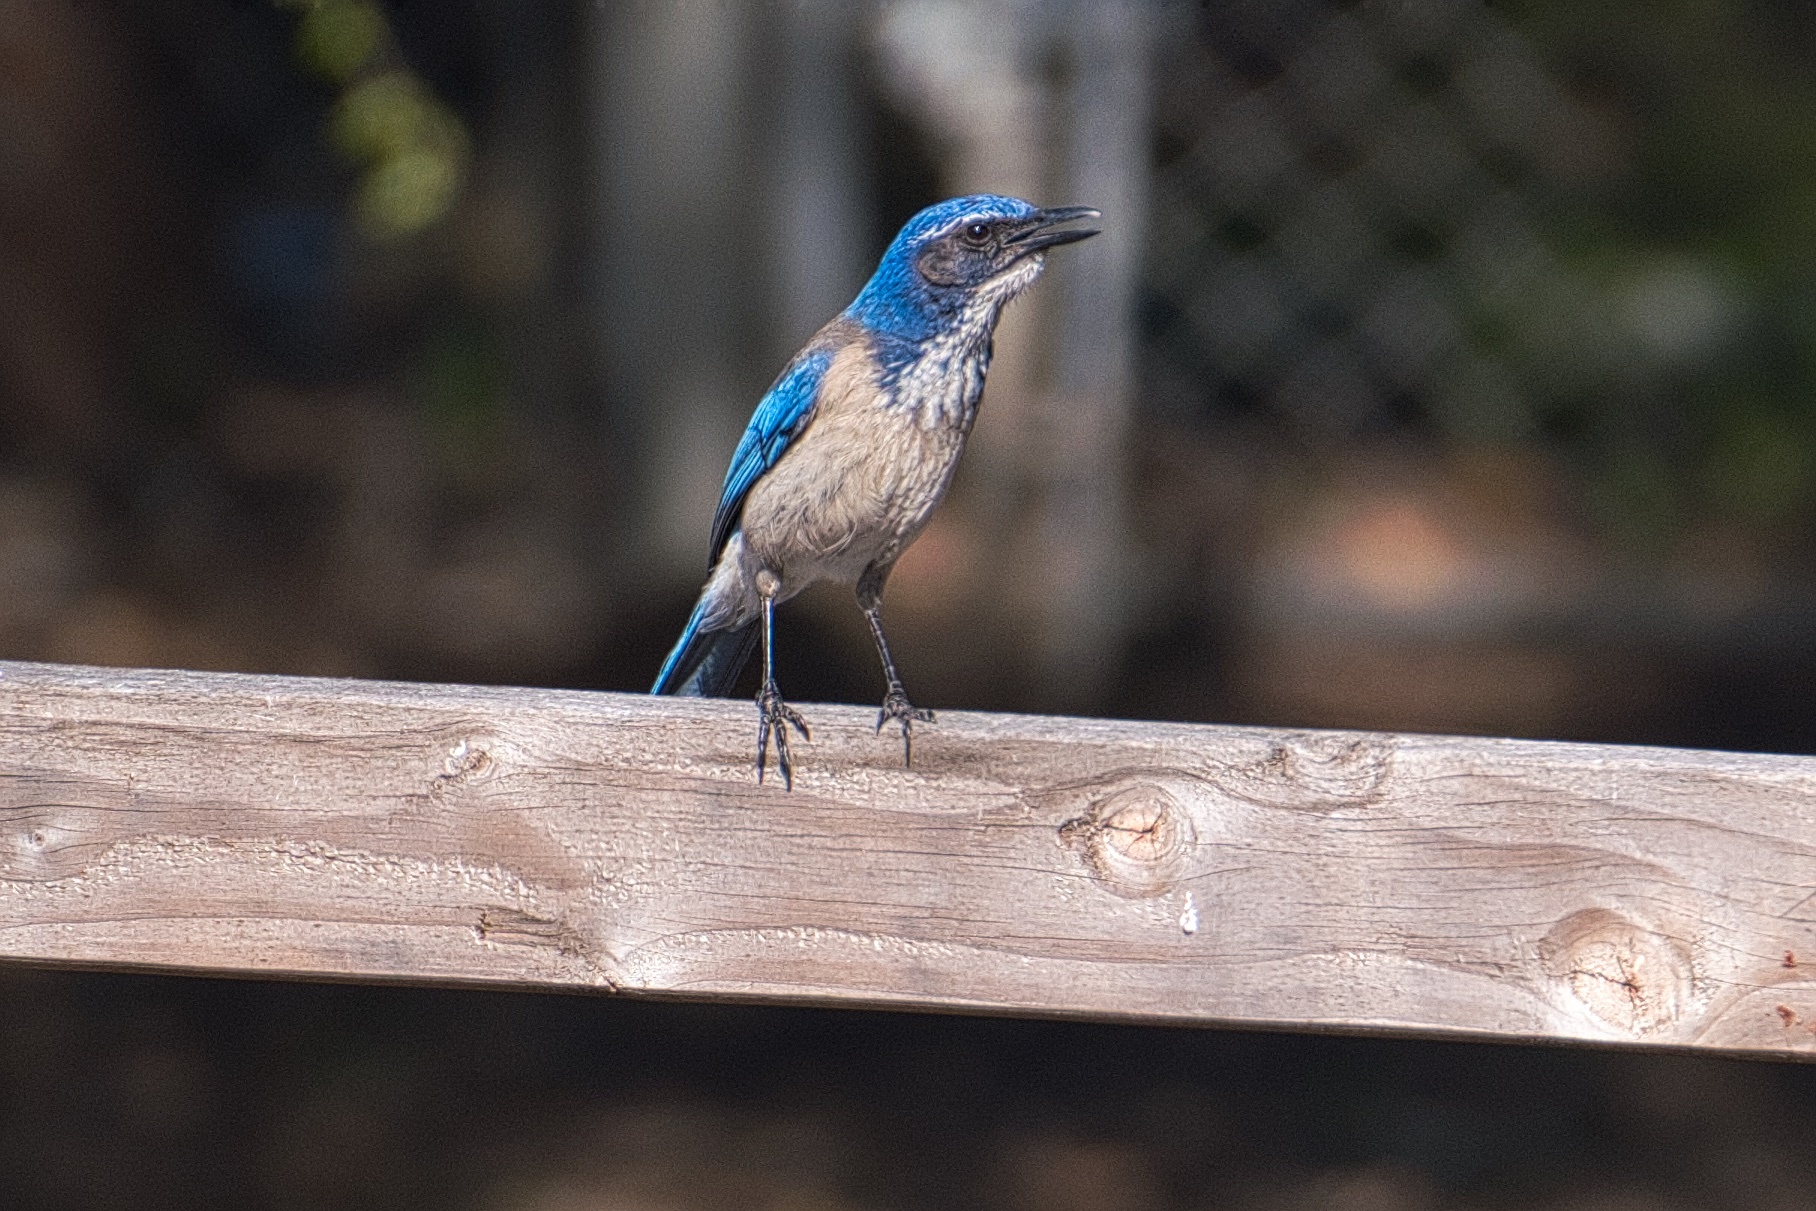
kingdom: Animalia
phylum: Chordata
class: Aves
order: Passeriformes
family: Corvidae
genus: Aphelocoma
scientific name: Aphelocoma californica
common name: California scrub-jay
